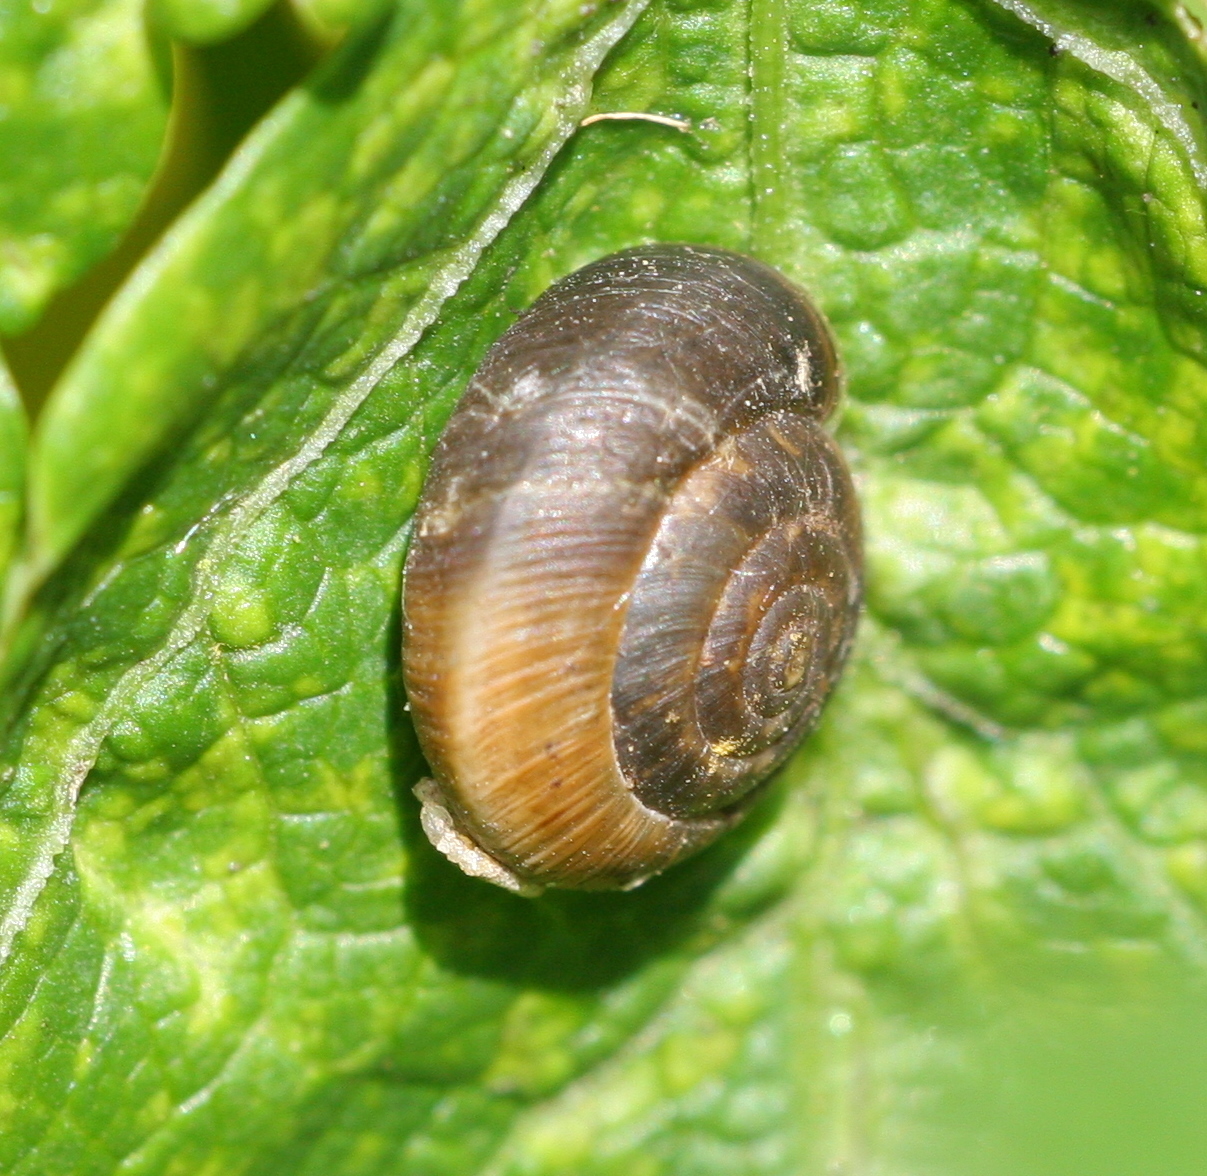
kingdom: Animalia
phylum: Mollusca
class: Gastropoda
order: Stylommatophora
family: Hygromiidae
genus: Trochulus
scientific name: Trochulus striolatus
